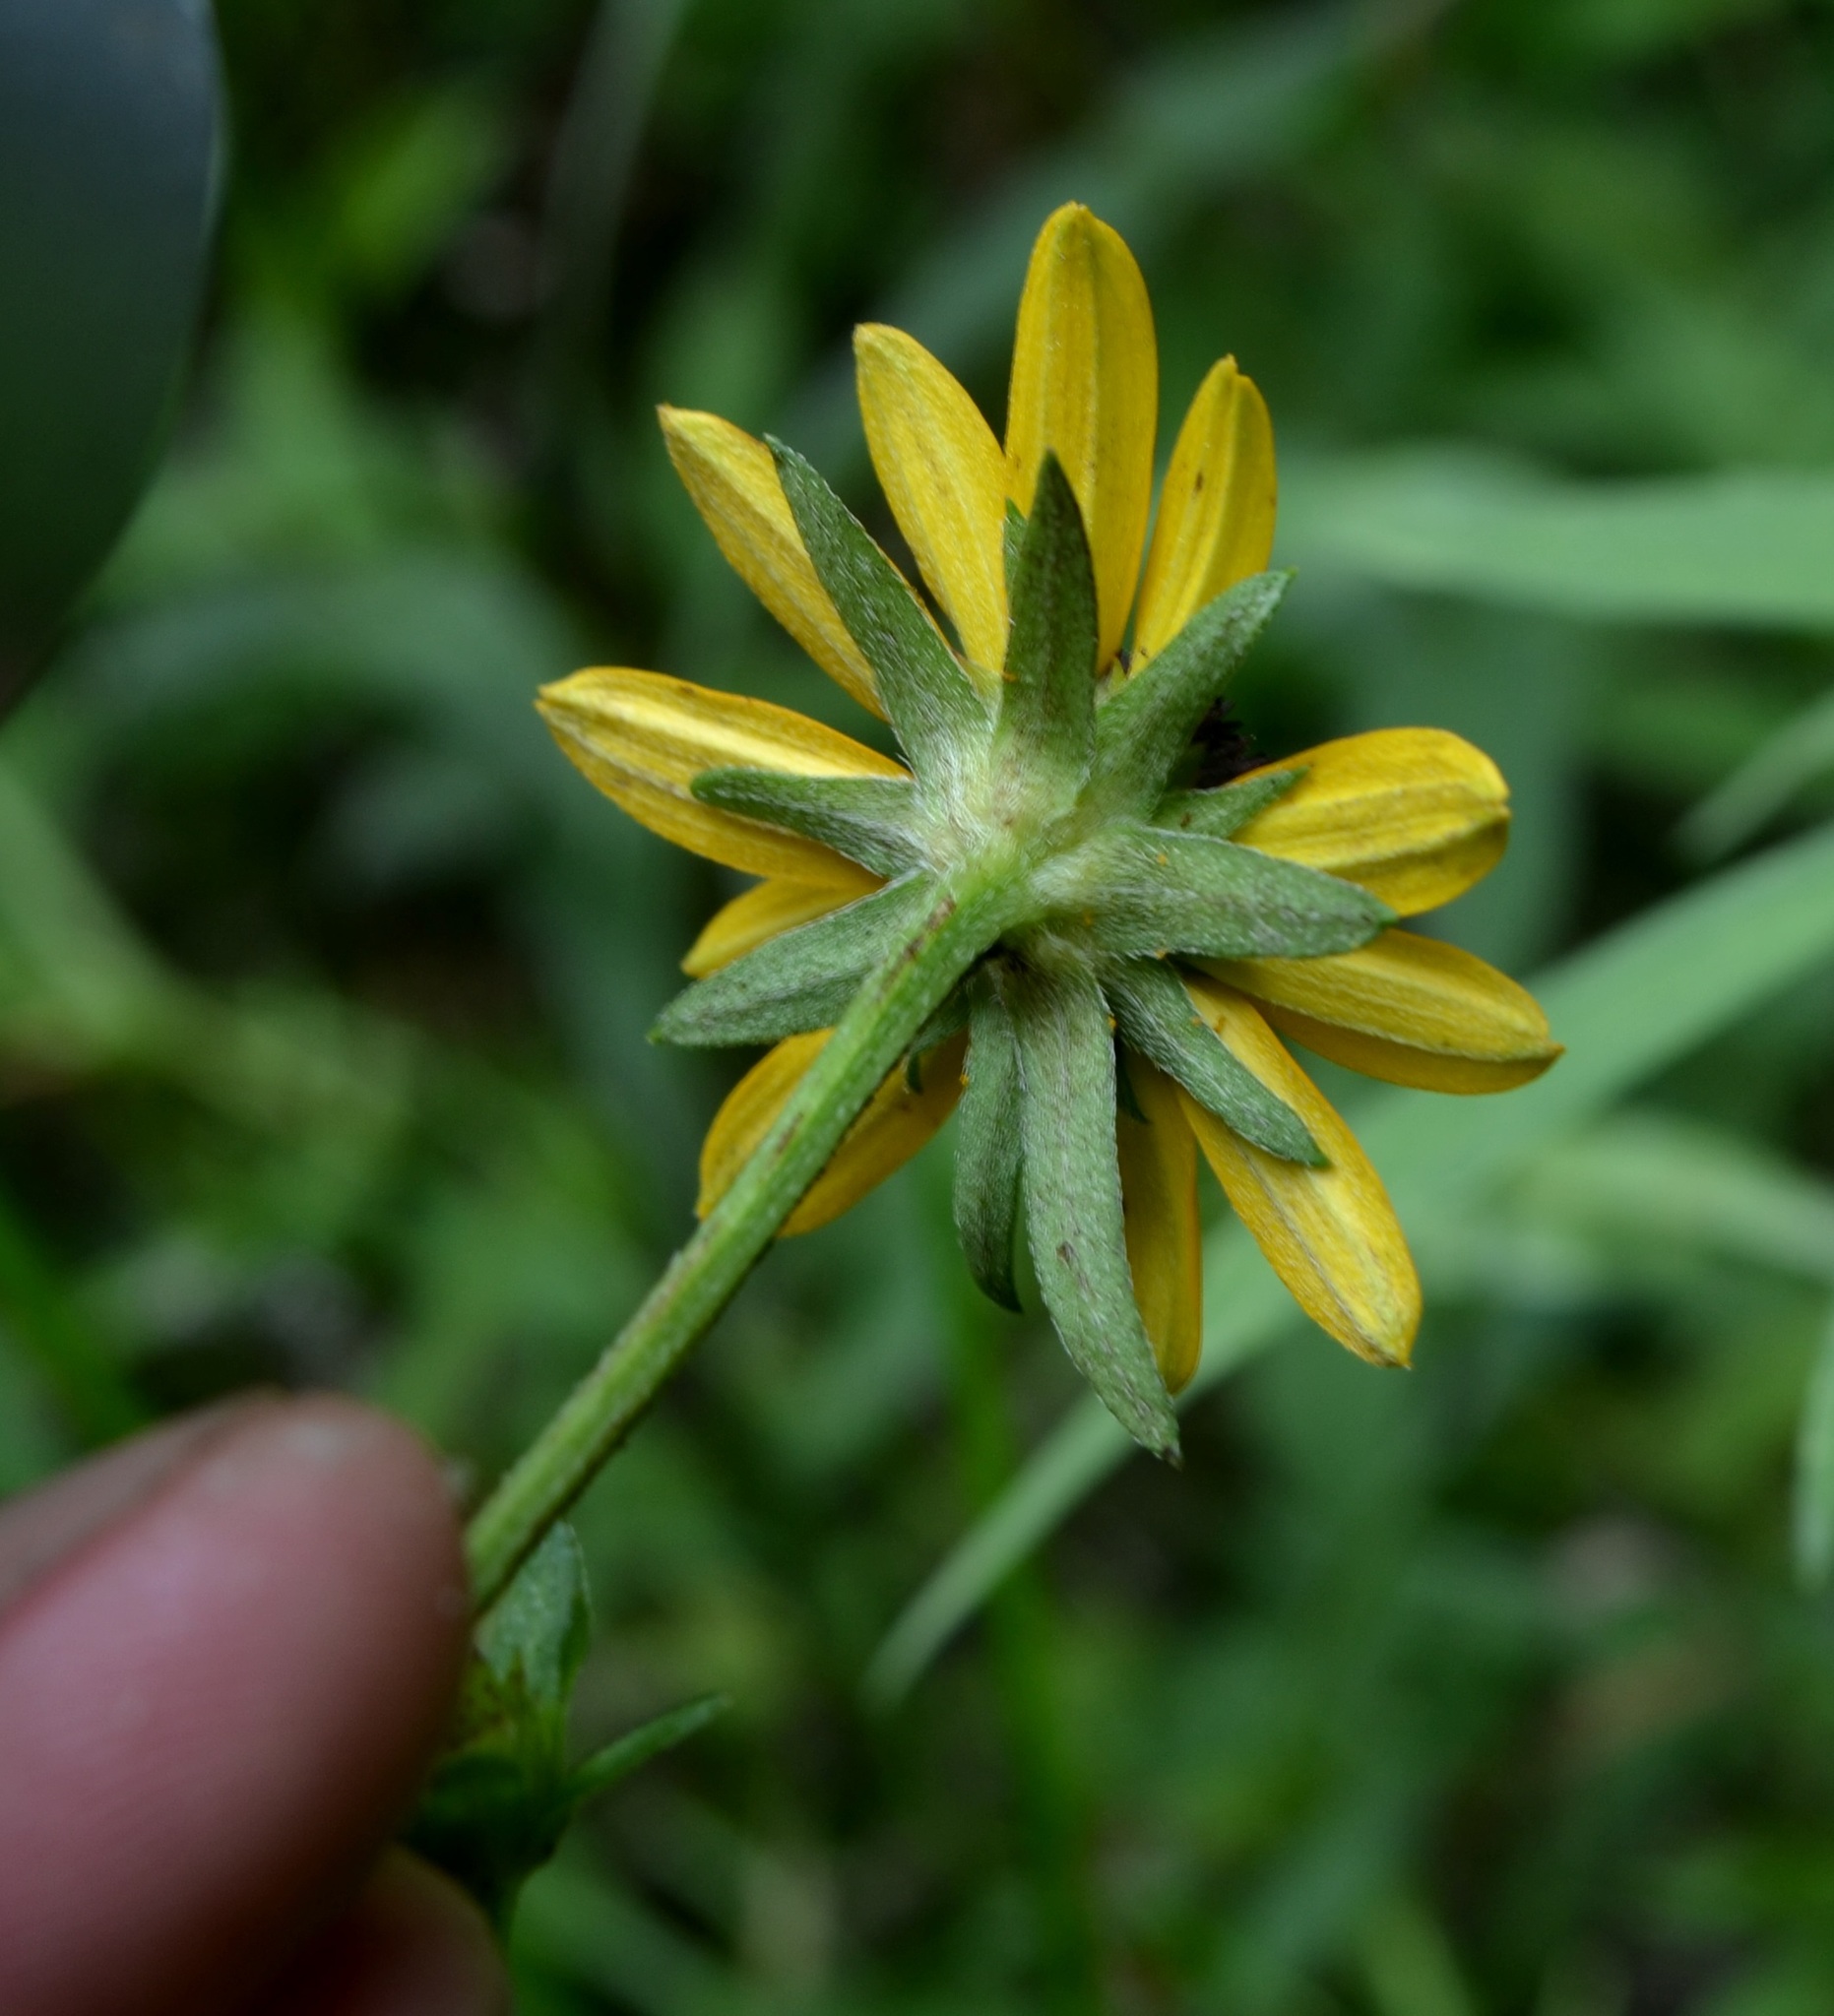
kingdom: Plantae
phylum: Tracheophyta
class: Magnoliopsida
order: Asterales
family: Asteraceae
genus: Rudbeckia
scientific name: Rudbeckia sullivantii
